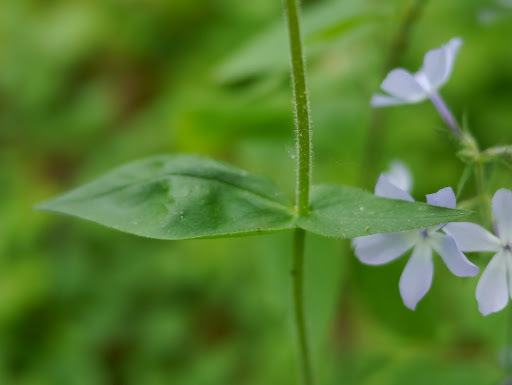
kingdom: Plantae
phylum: Tracheophyta
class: Magnoliopsida
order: Ericales
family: Polemoniaceae
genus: Phlox
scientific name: Phlox divaricata
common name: Blue phlox
